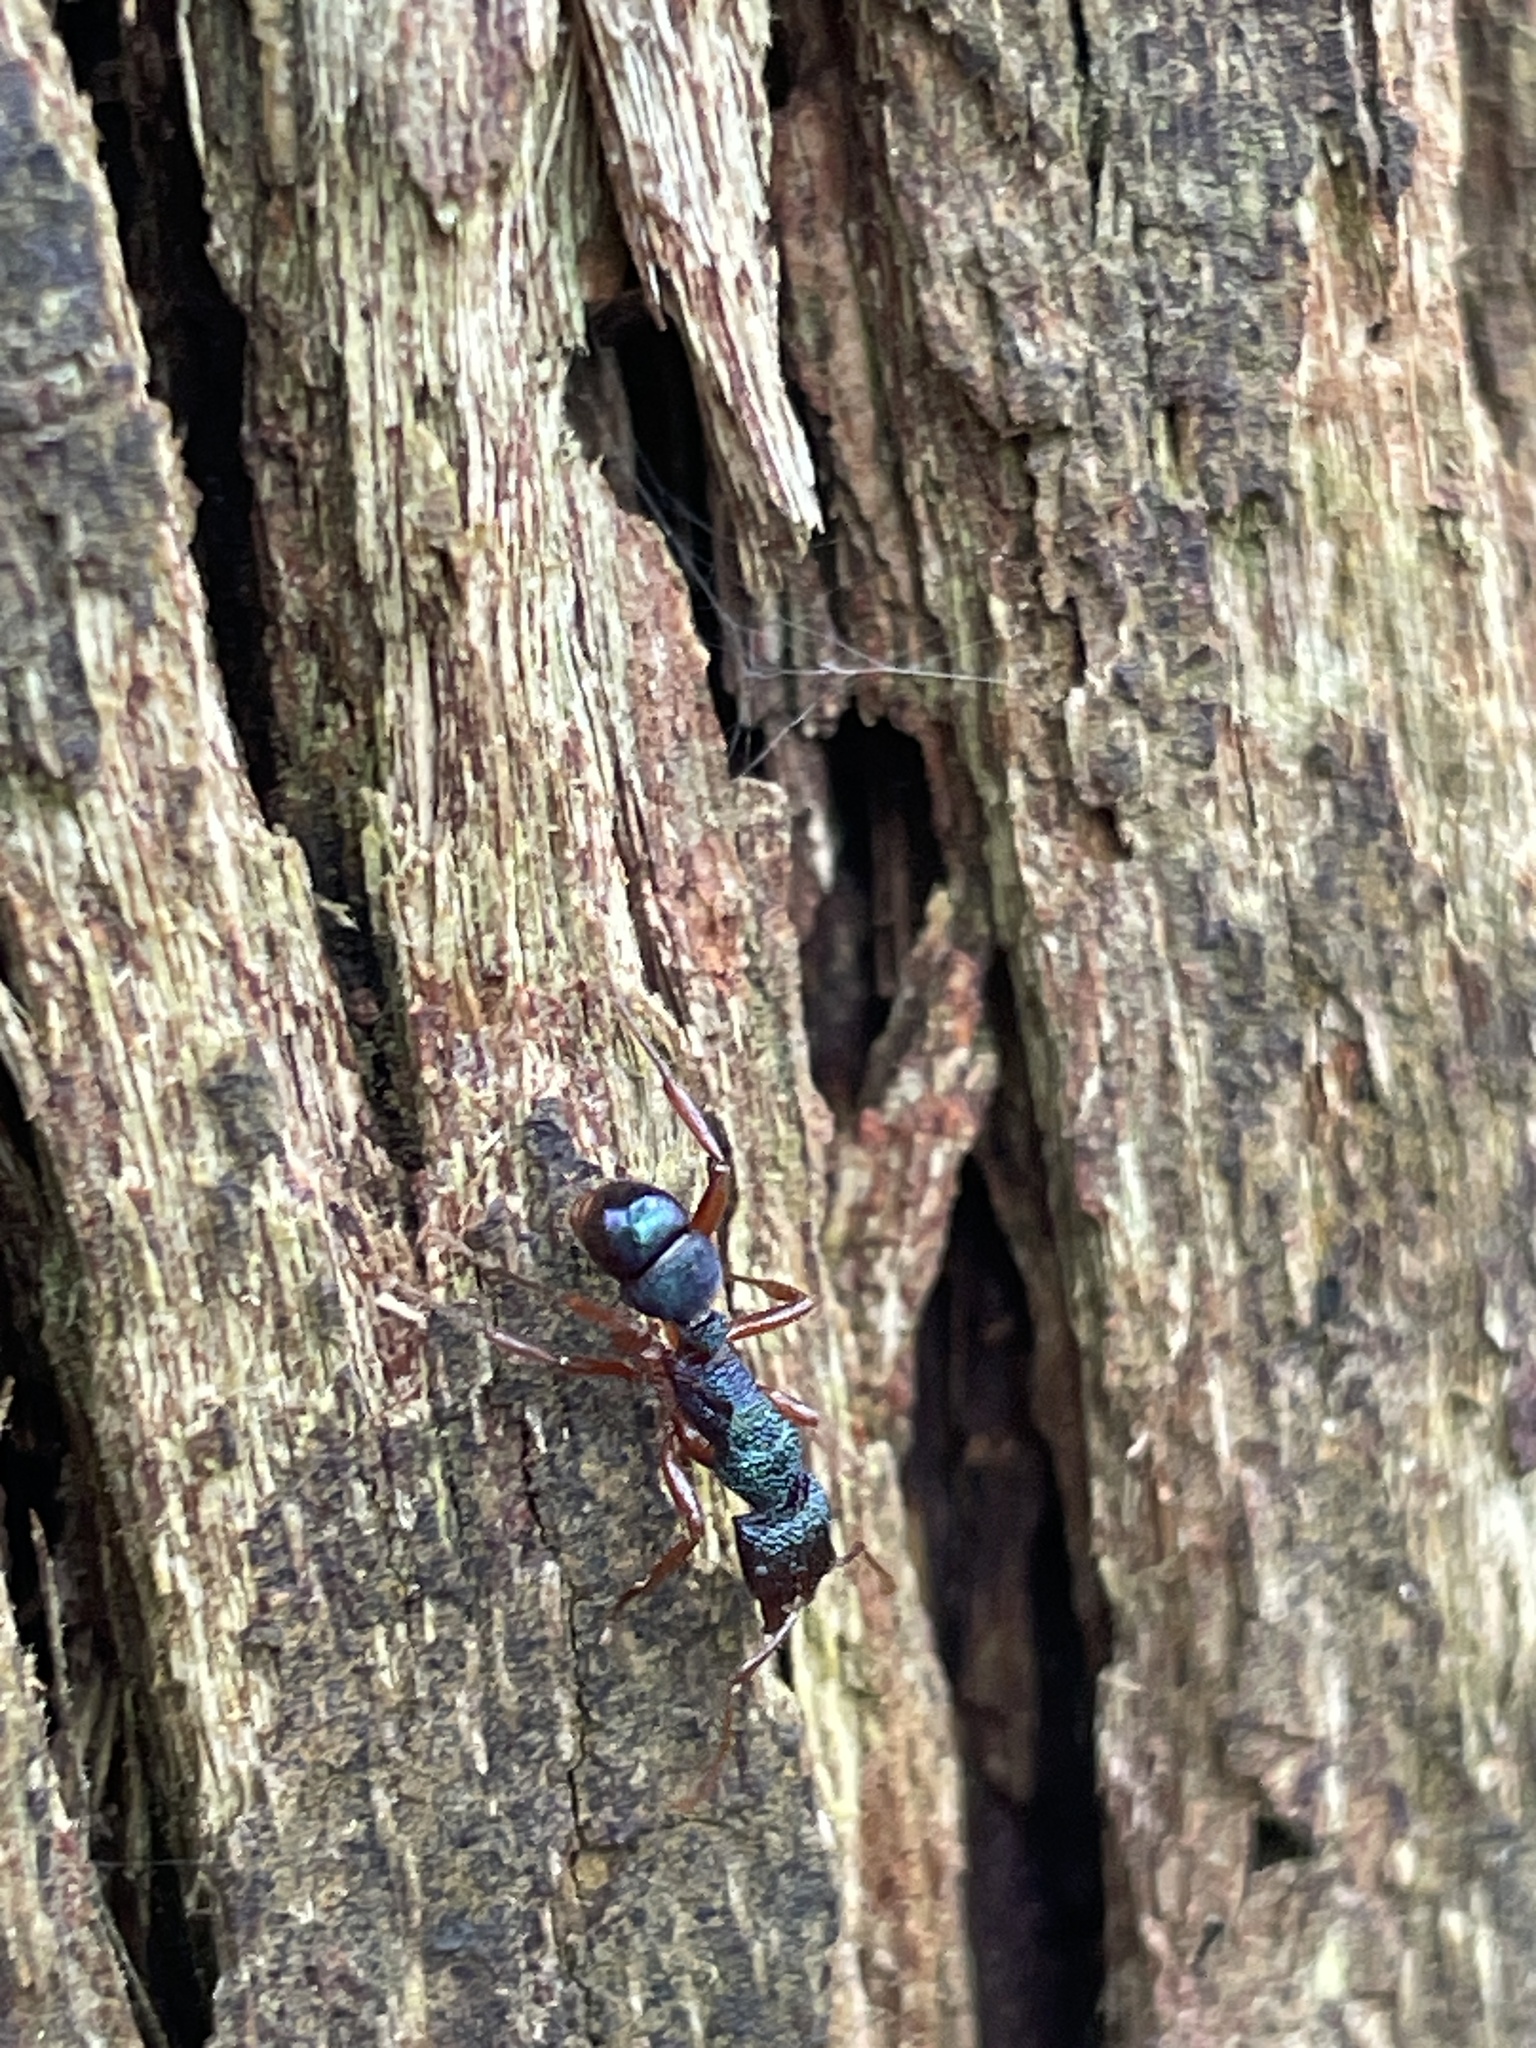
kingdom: Animalia
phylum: Arthropoda
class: Insecta
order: Hymenoptera
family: Formicidae
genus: Rhytidoponera
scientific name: Rhytidoponera aspera
